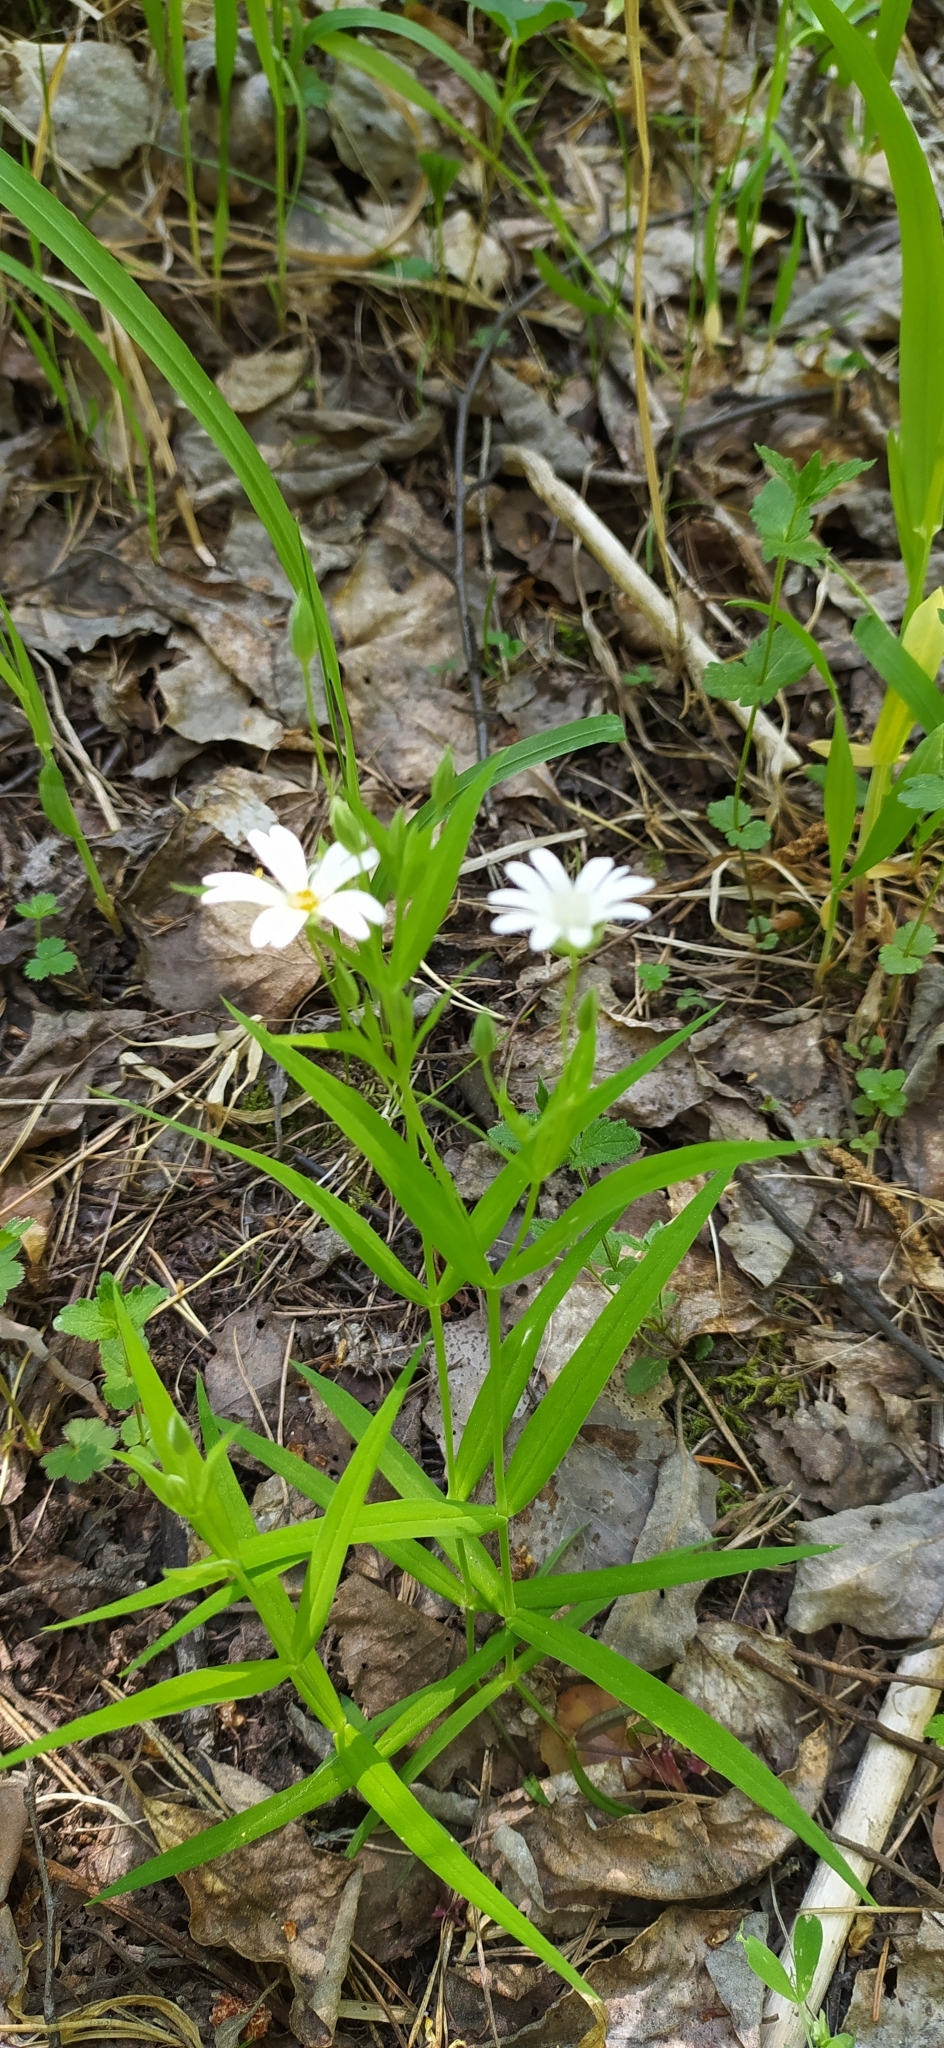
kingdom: Plantae
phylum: Tracheophyta
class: Magnoliopsida
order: Caryophyllales
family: Caryophyllaceae
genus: Rabelera
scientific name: Rabelera holostea
